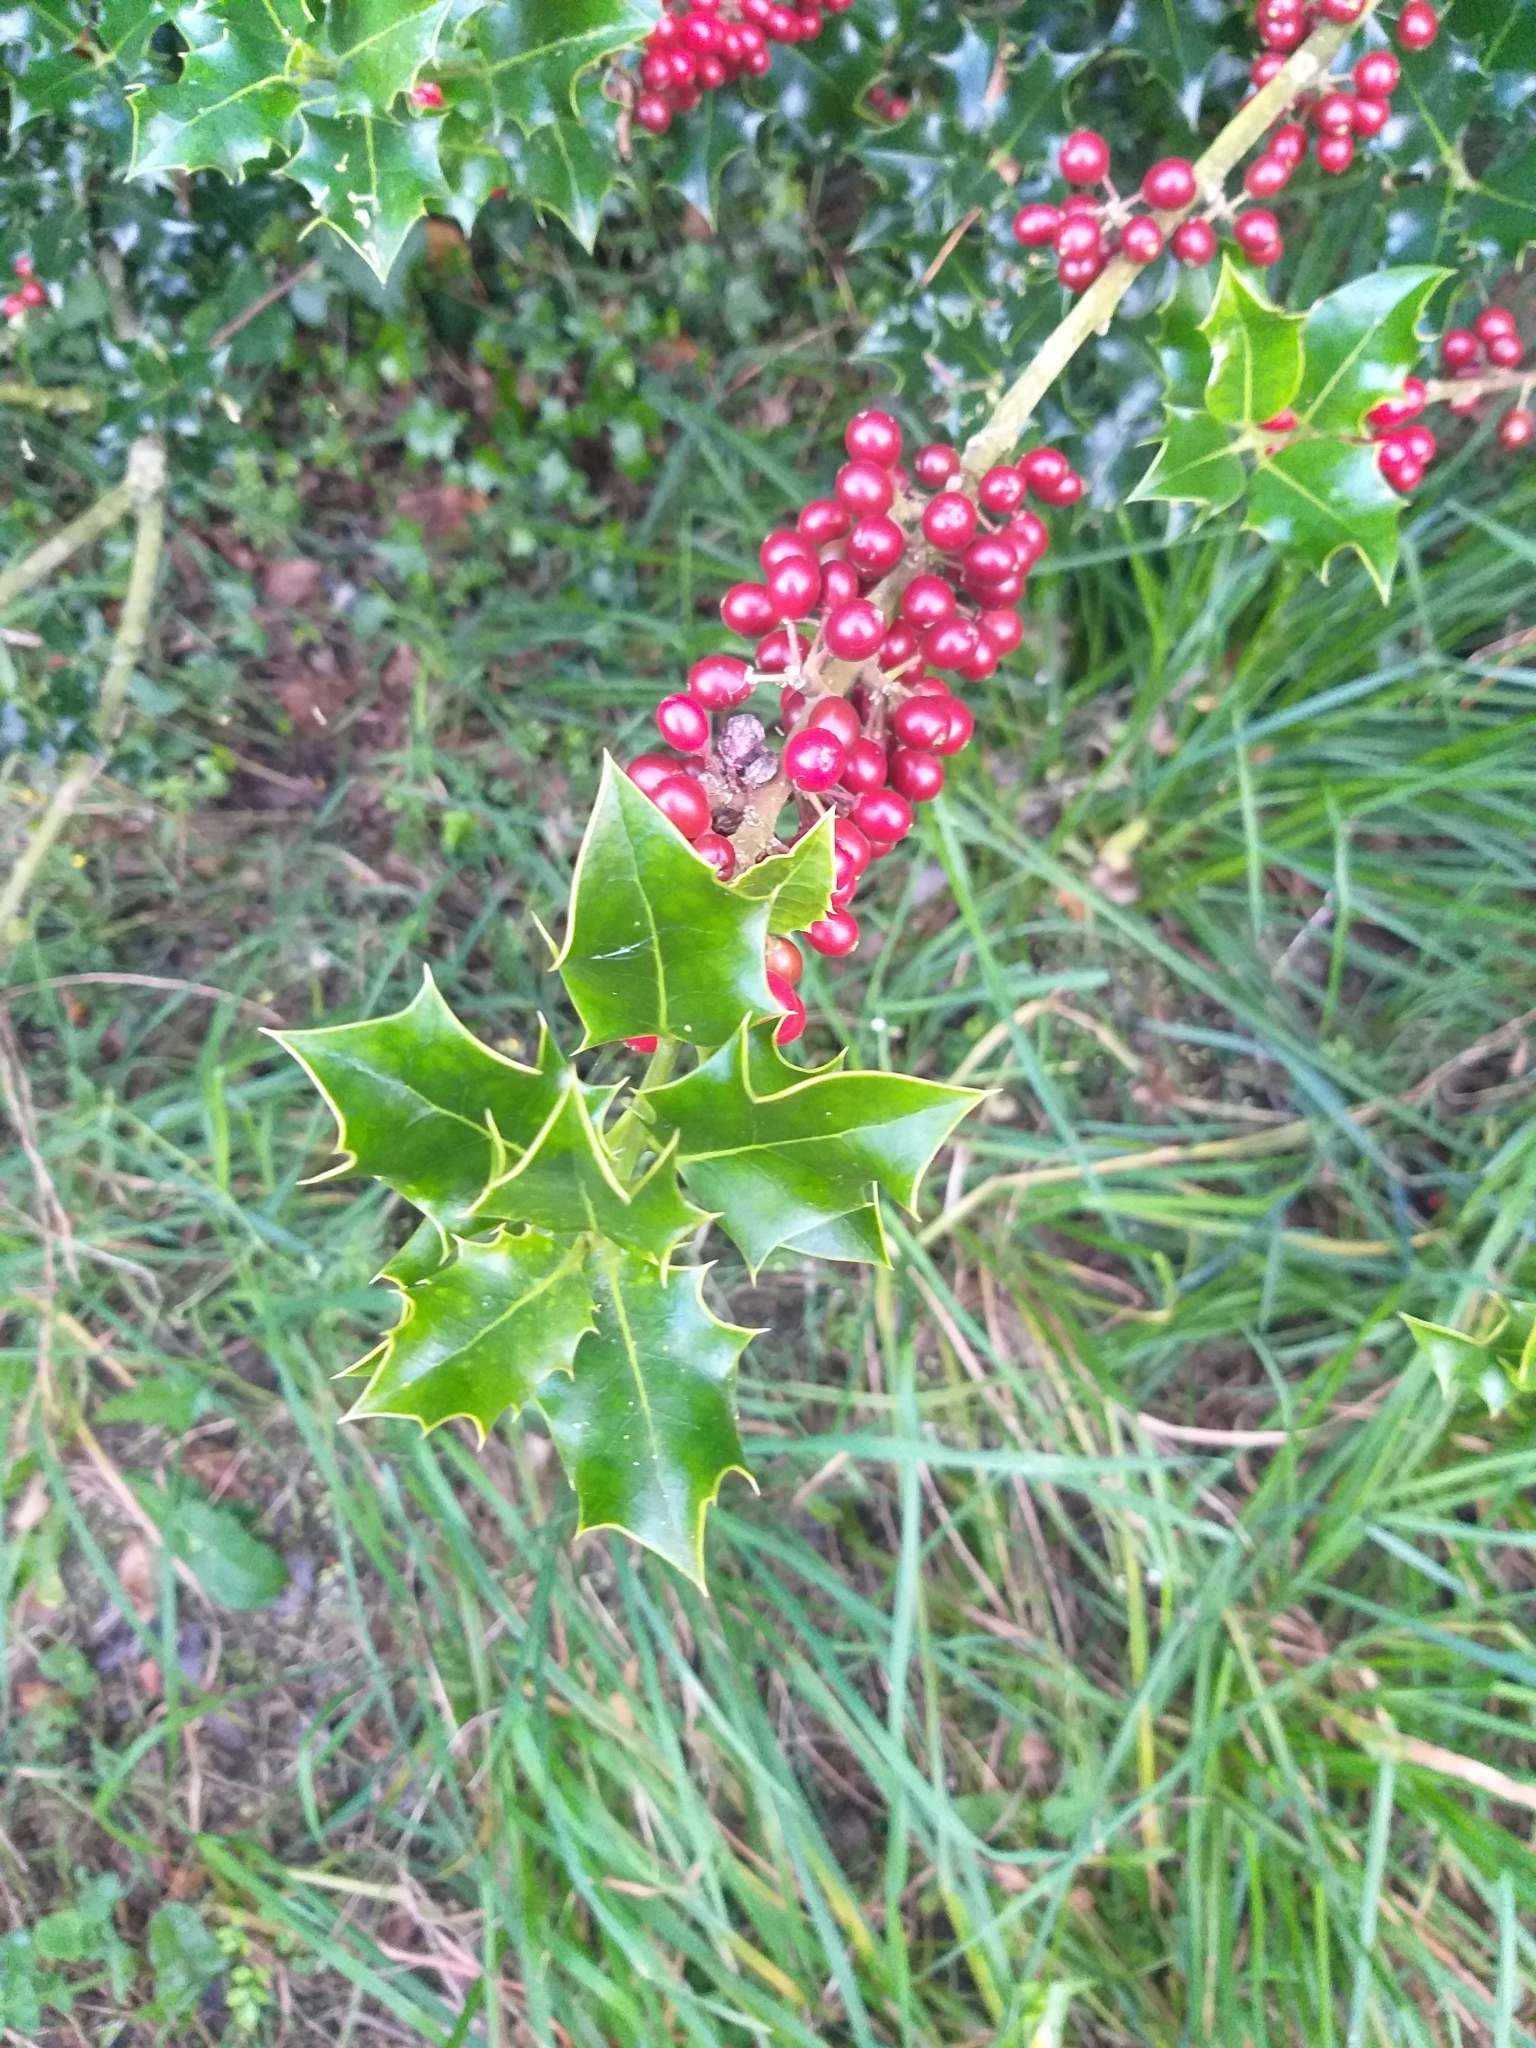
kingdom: Plantae
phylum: Tracheophyta
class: Magnoliopsida
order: Aquifoliales
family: Aquifoliaceae
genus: Ilex
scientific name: Ilex aquifolium
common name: English holly
